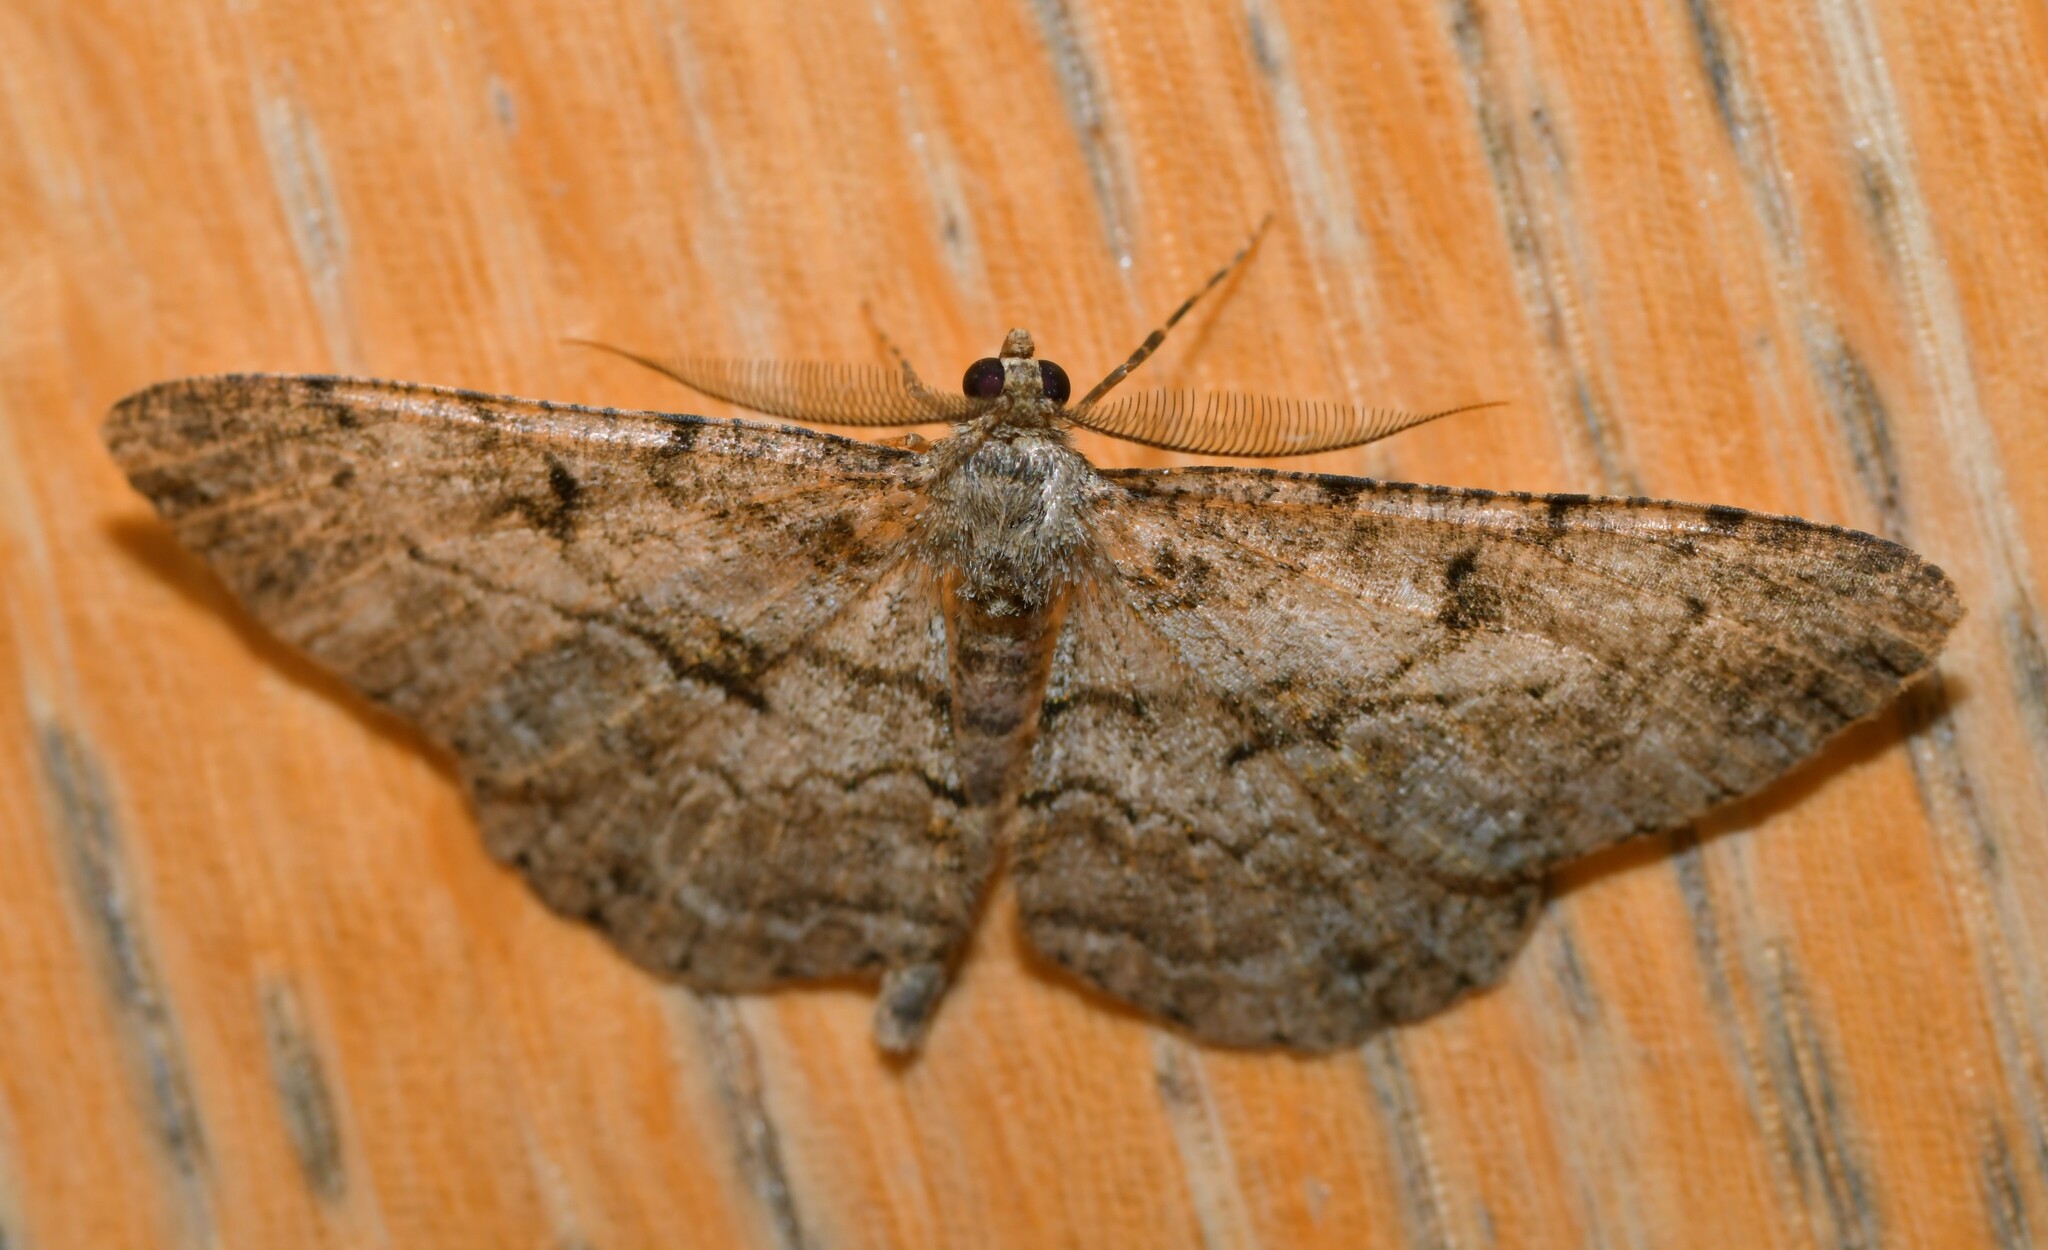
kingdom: Animalia
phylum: Arthropoda
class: Insecta
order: Lepidoptera
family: Geometridae
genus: Peribatodes
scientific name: Peribatodes rhomboidaria
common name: Willow beauty
